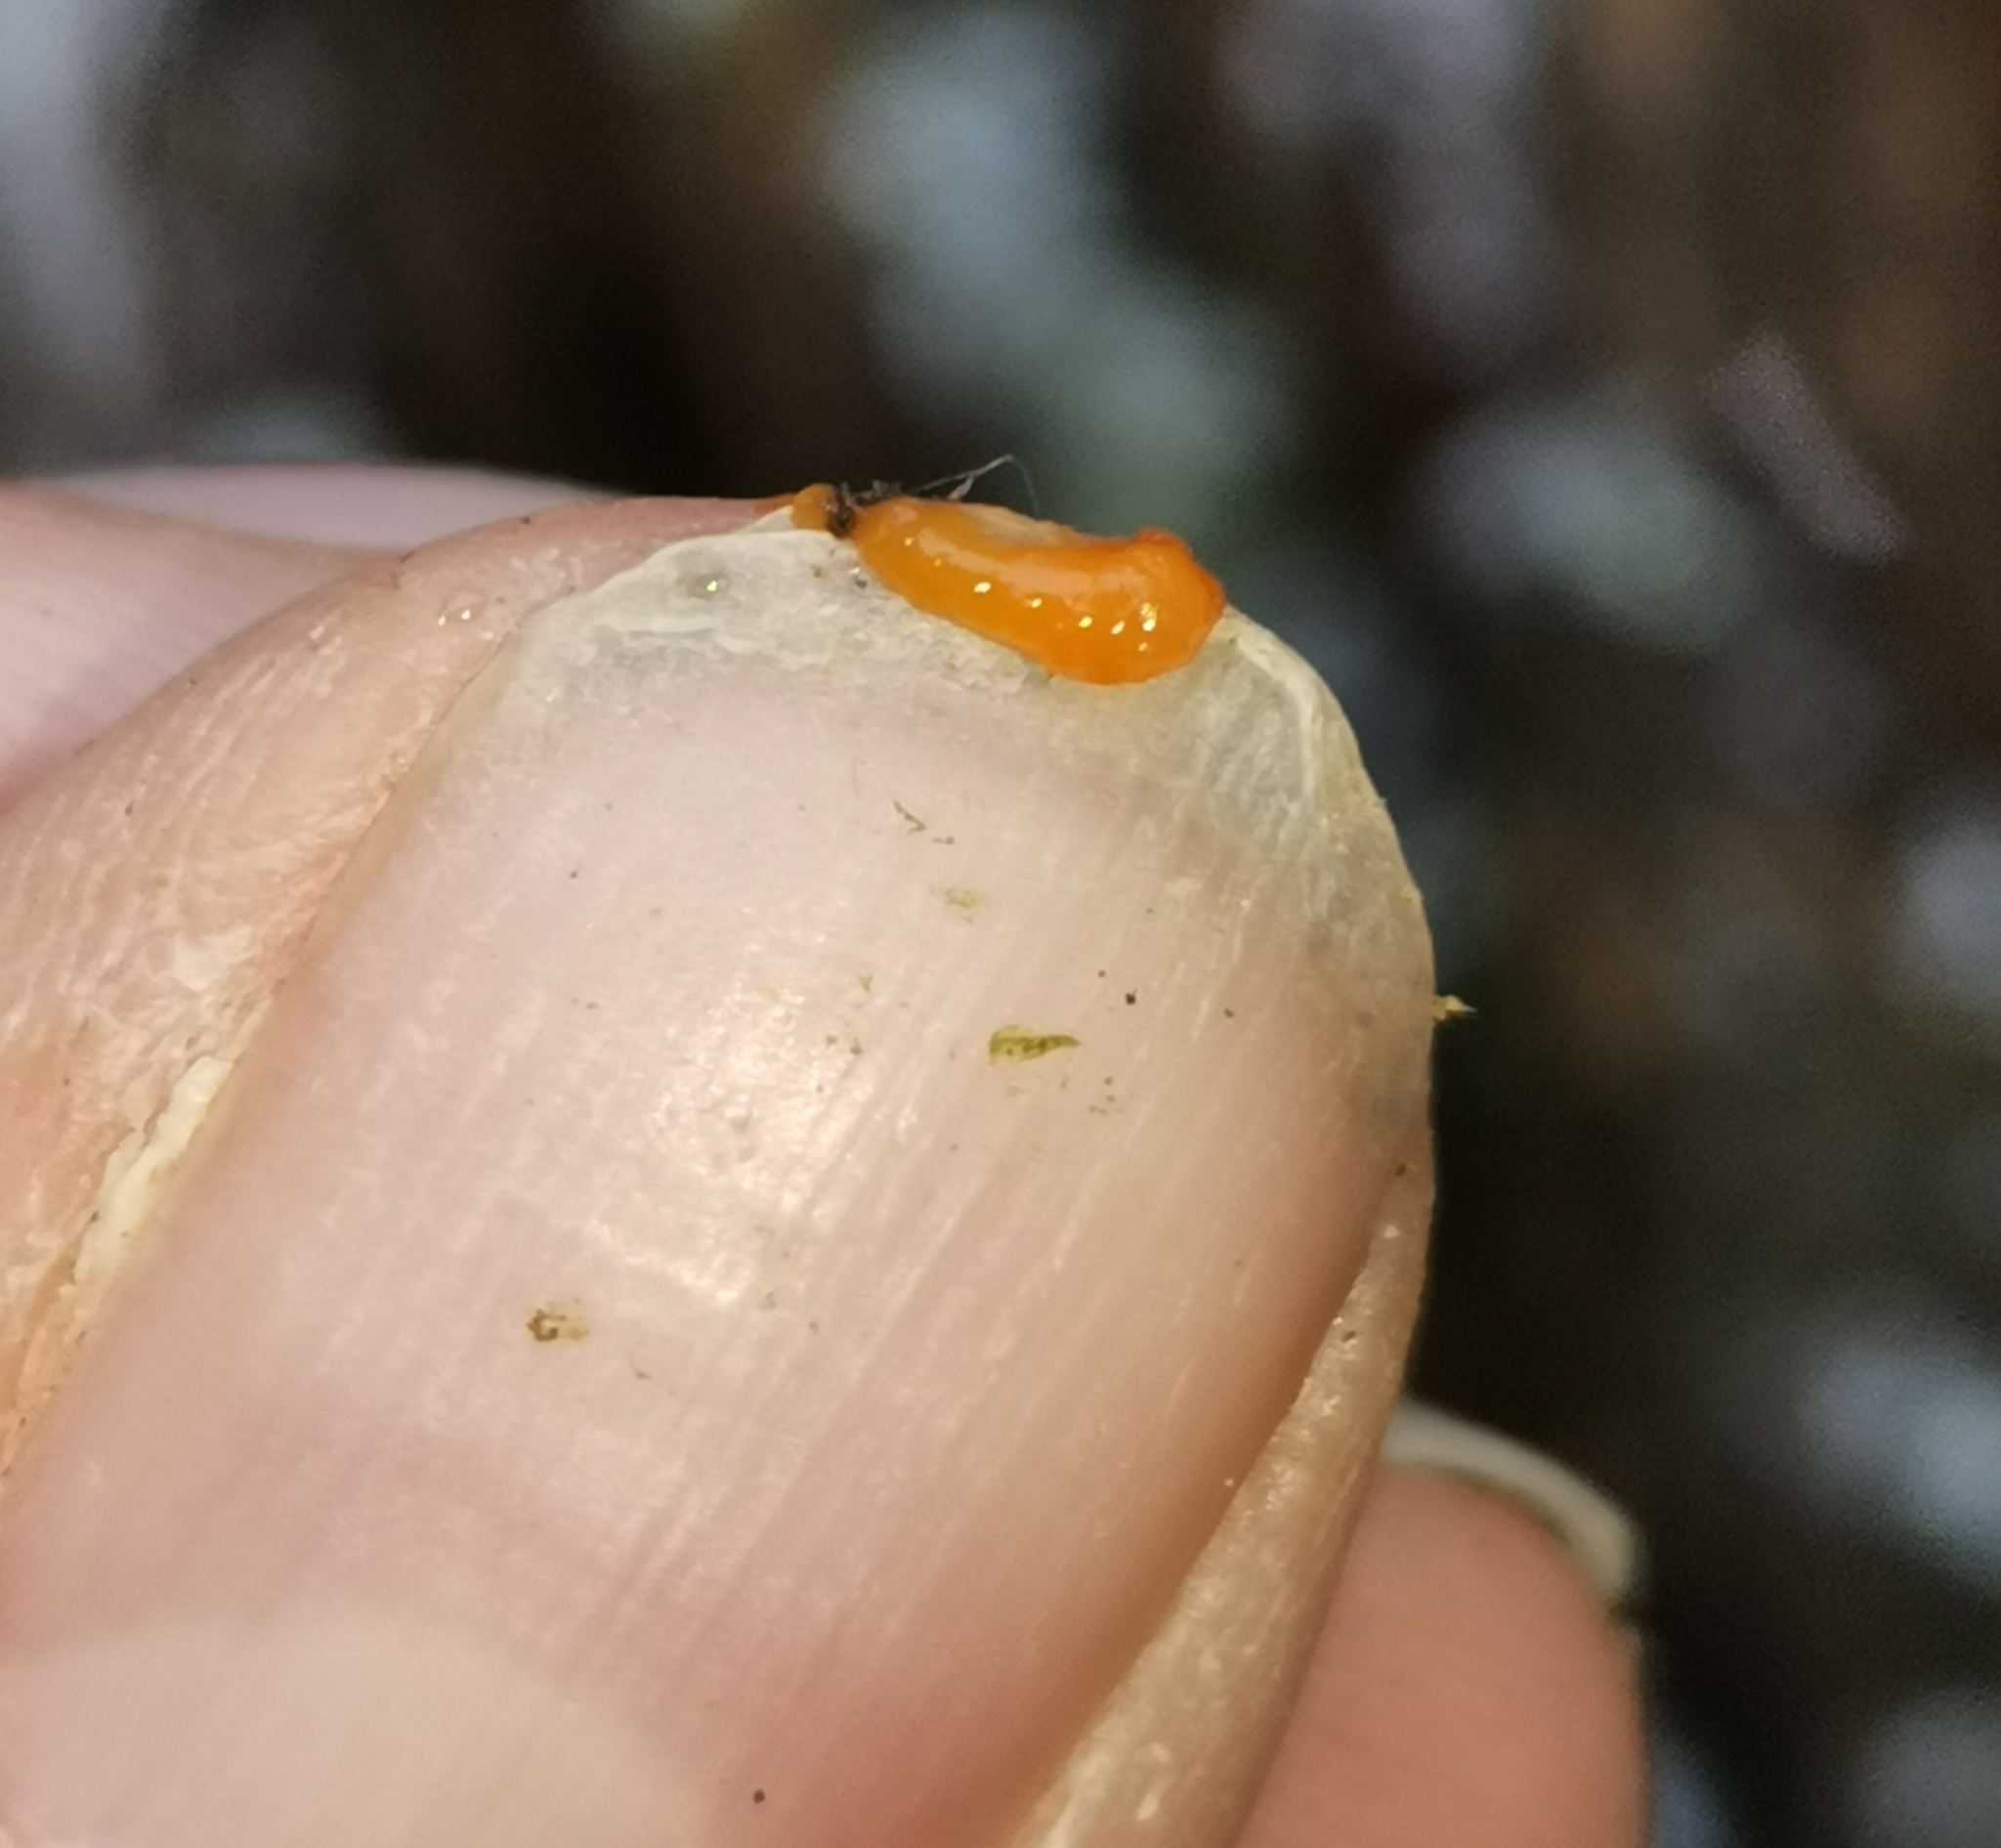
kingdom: Fungi
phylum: Basidiomycota
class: Dacrymycetes
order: Dacrymycetales
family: Dacrymycetaceae
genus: Dacrymyces
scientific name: Dacrymyces stillatus
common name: Common jelly spot
